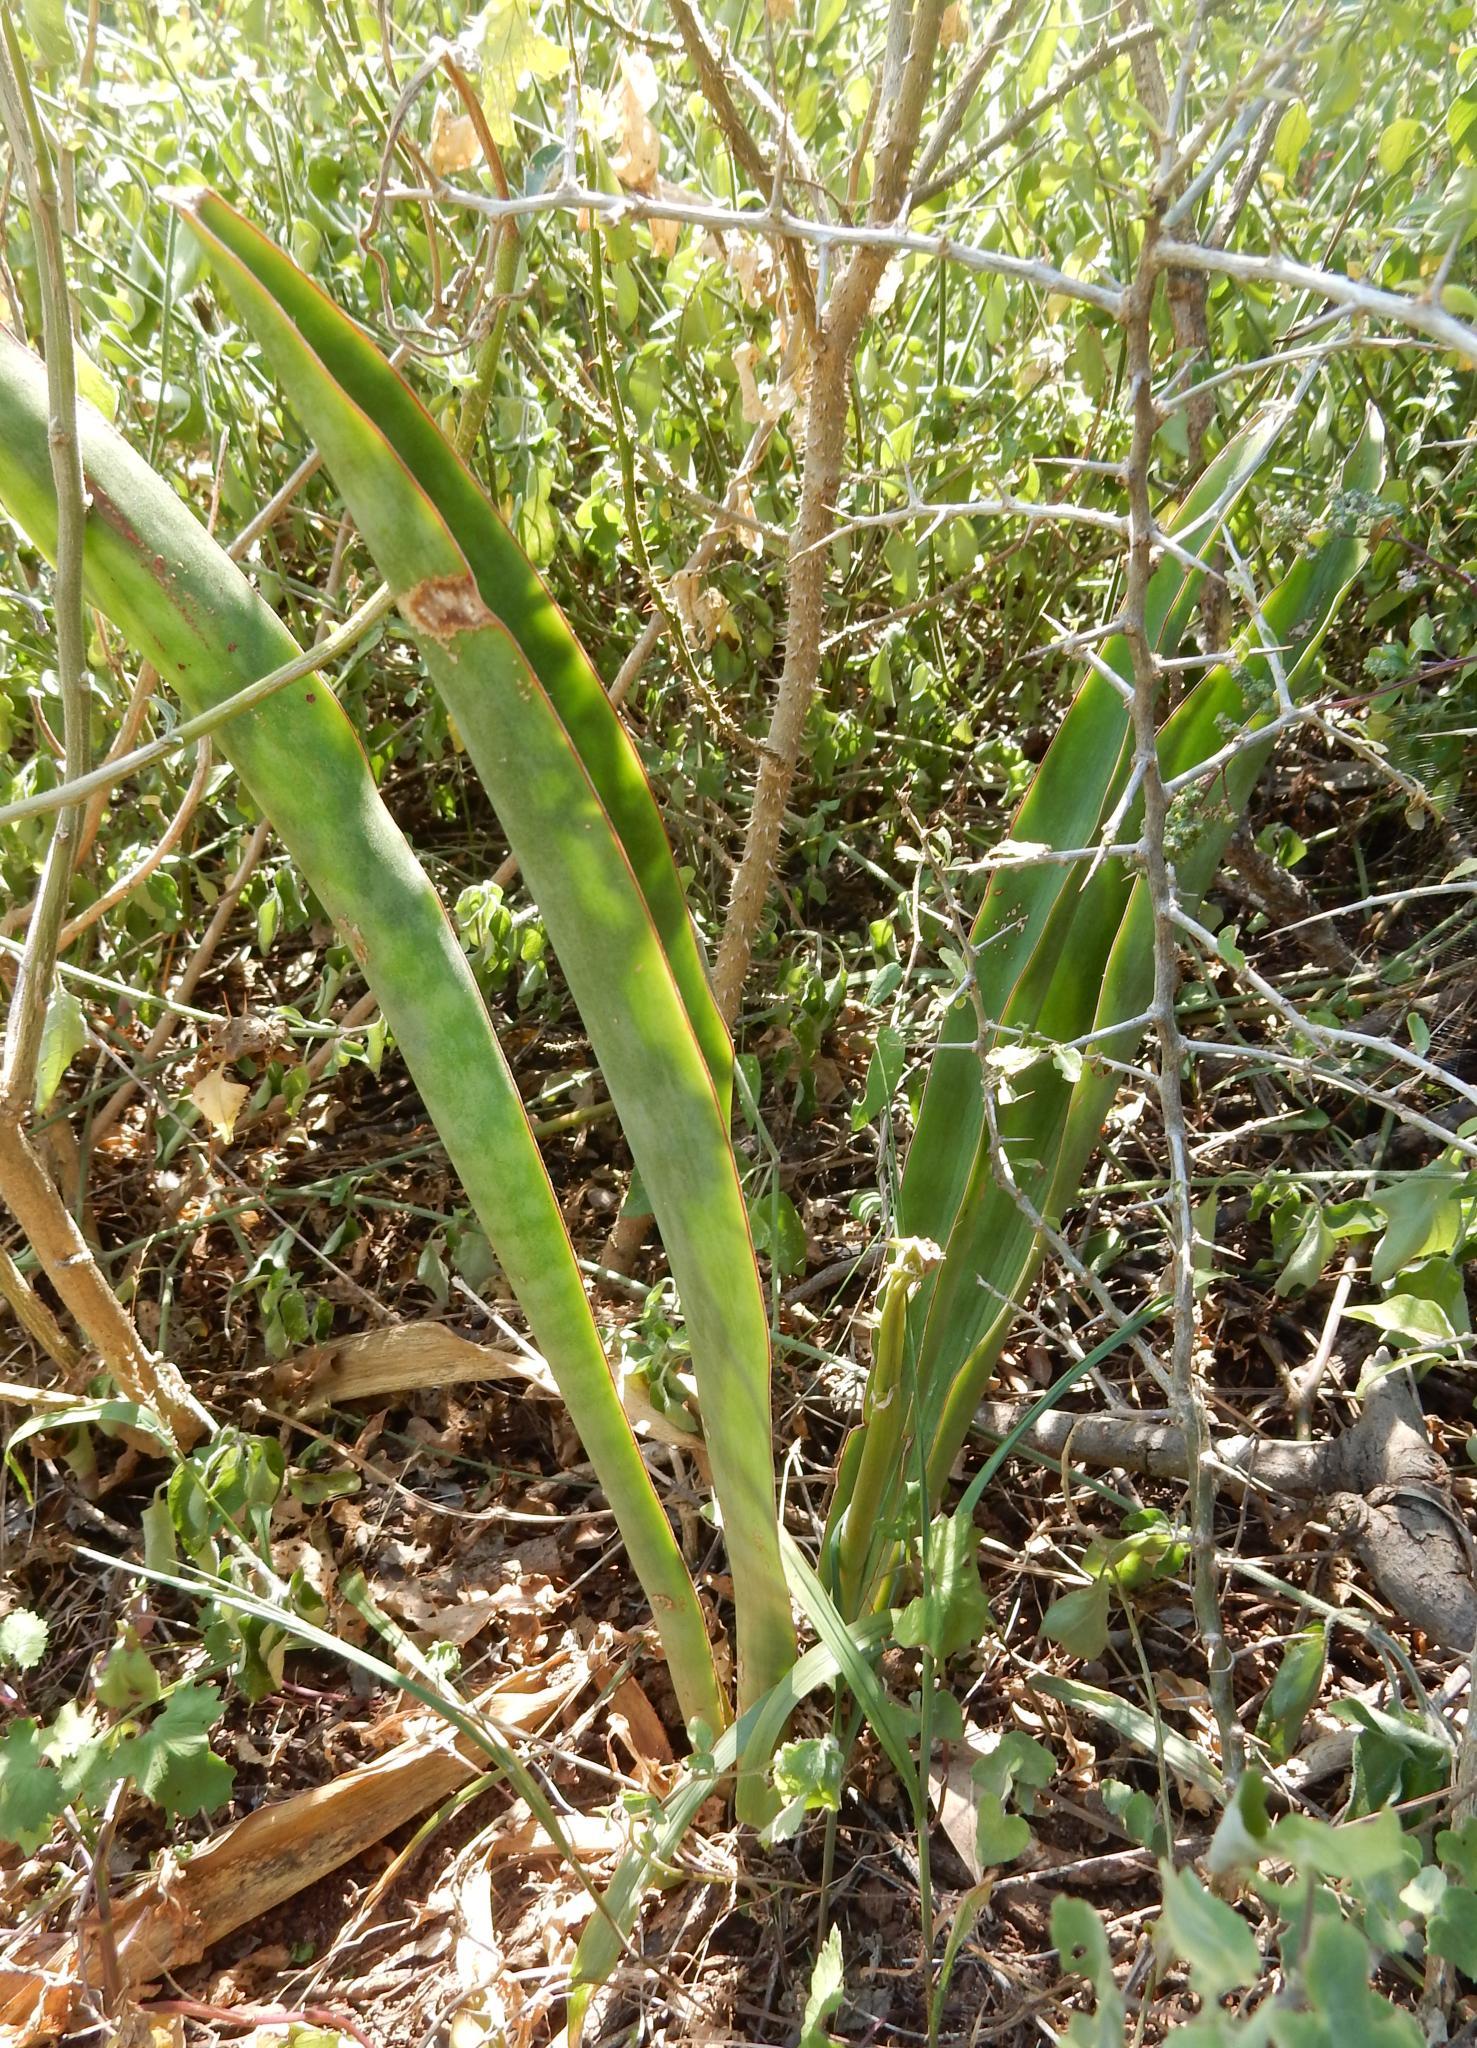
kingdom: Plantae
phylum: Tracheophyta
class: Liliopsida
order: Asparagales
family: Asparagaceae
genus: Dracaena
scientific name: Dracaena hyacinthoides
